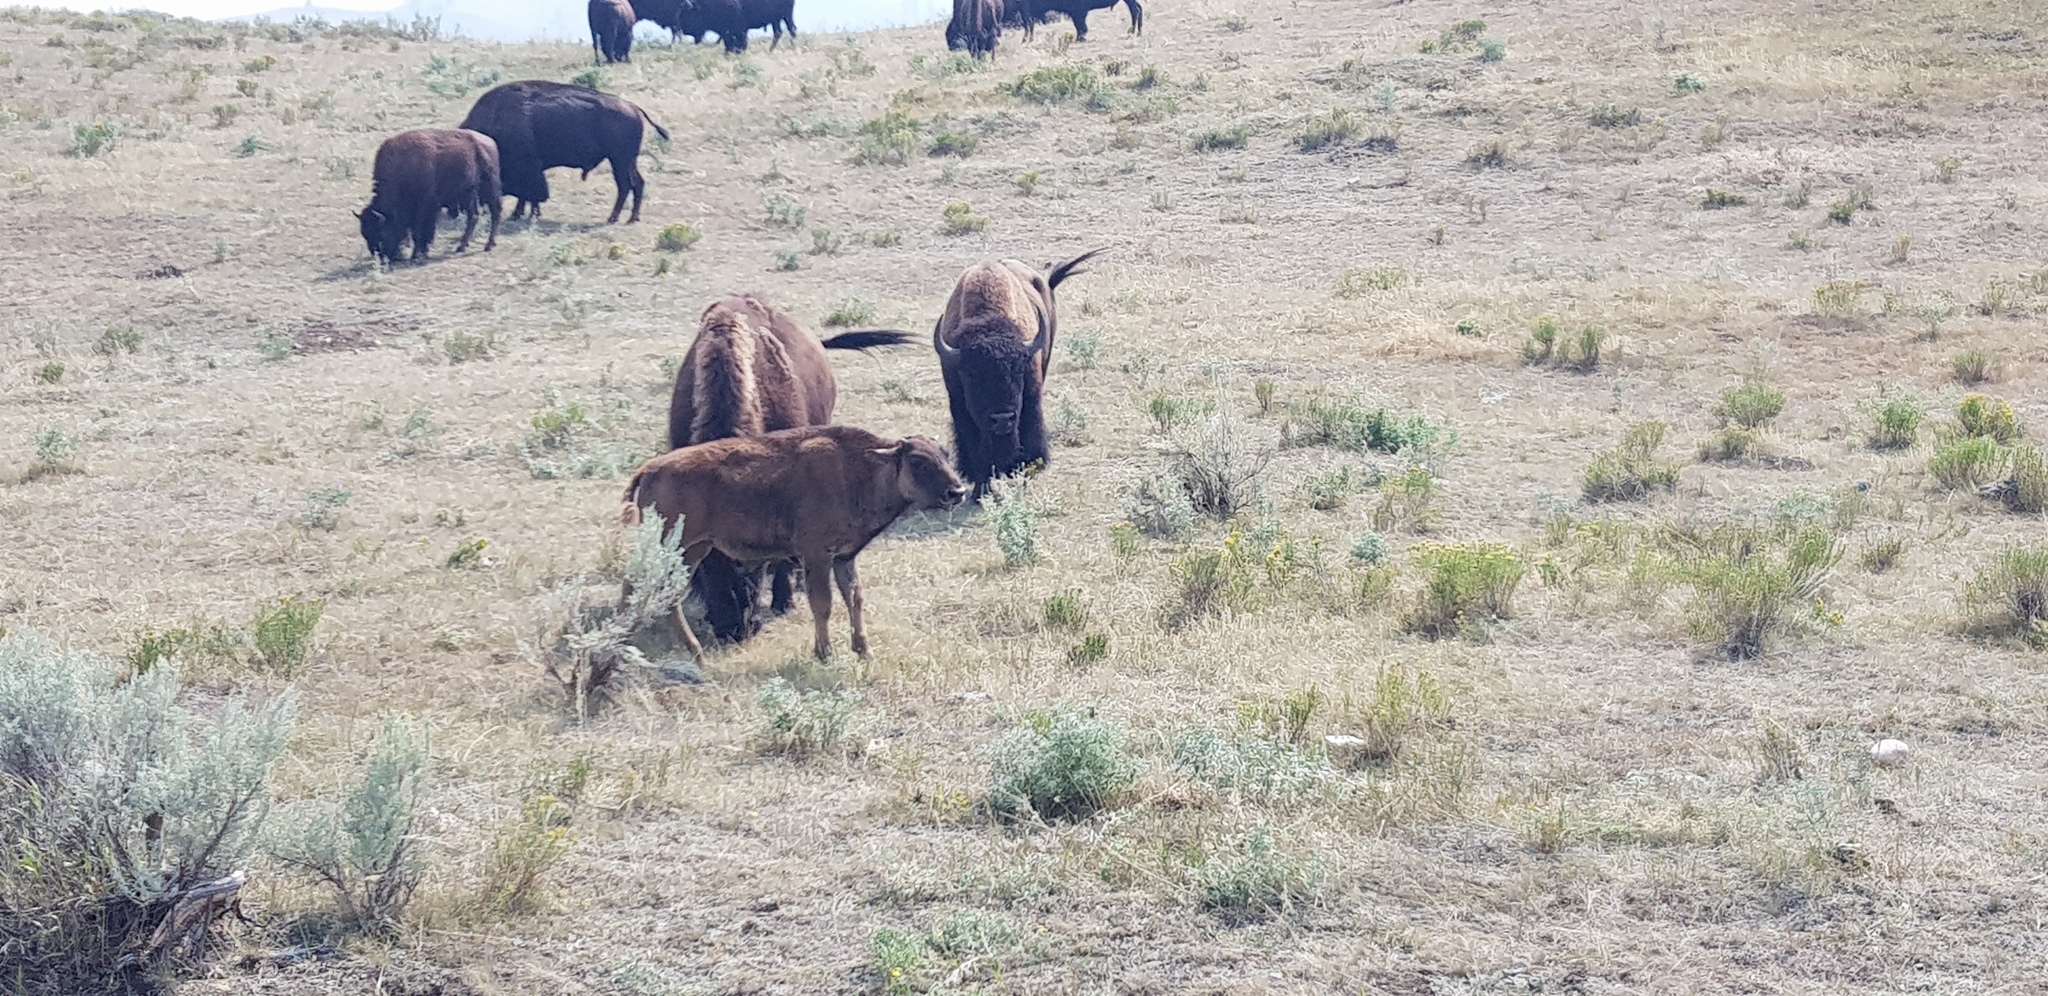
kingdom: Animalia
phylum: Chordata
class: Mammalia
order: Artiodactyla
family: Bovidae
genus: Bison
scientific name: Bison bison
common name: American bison
